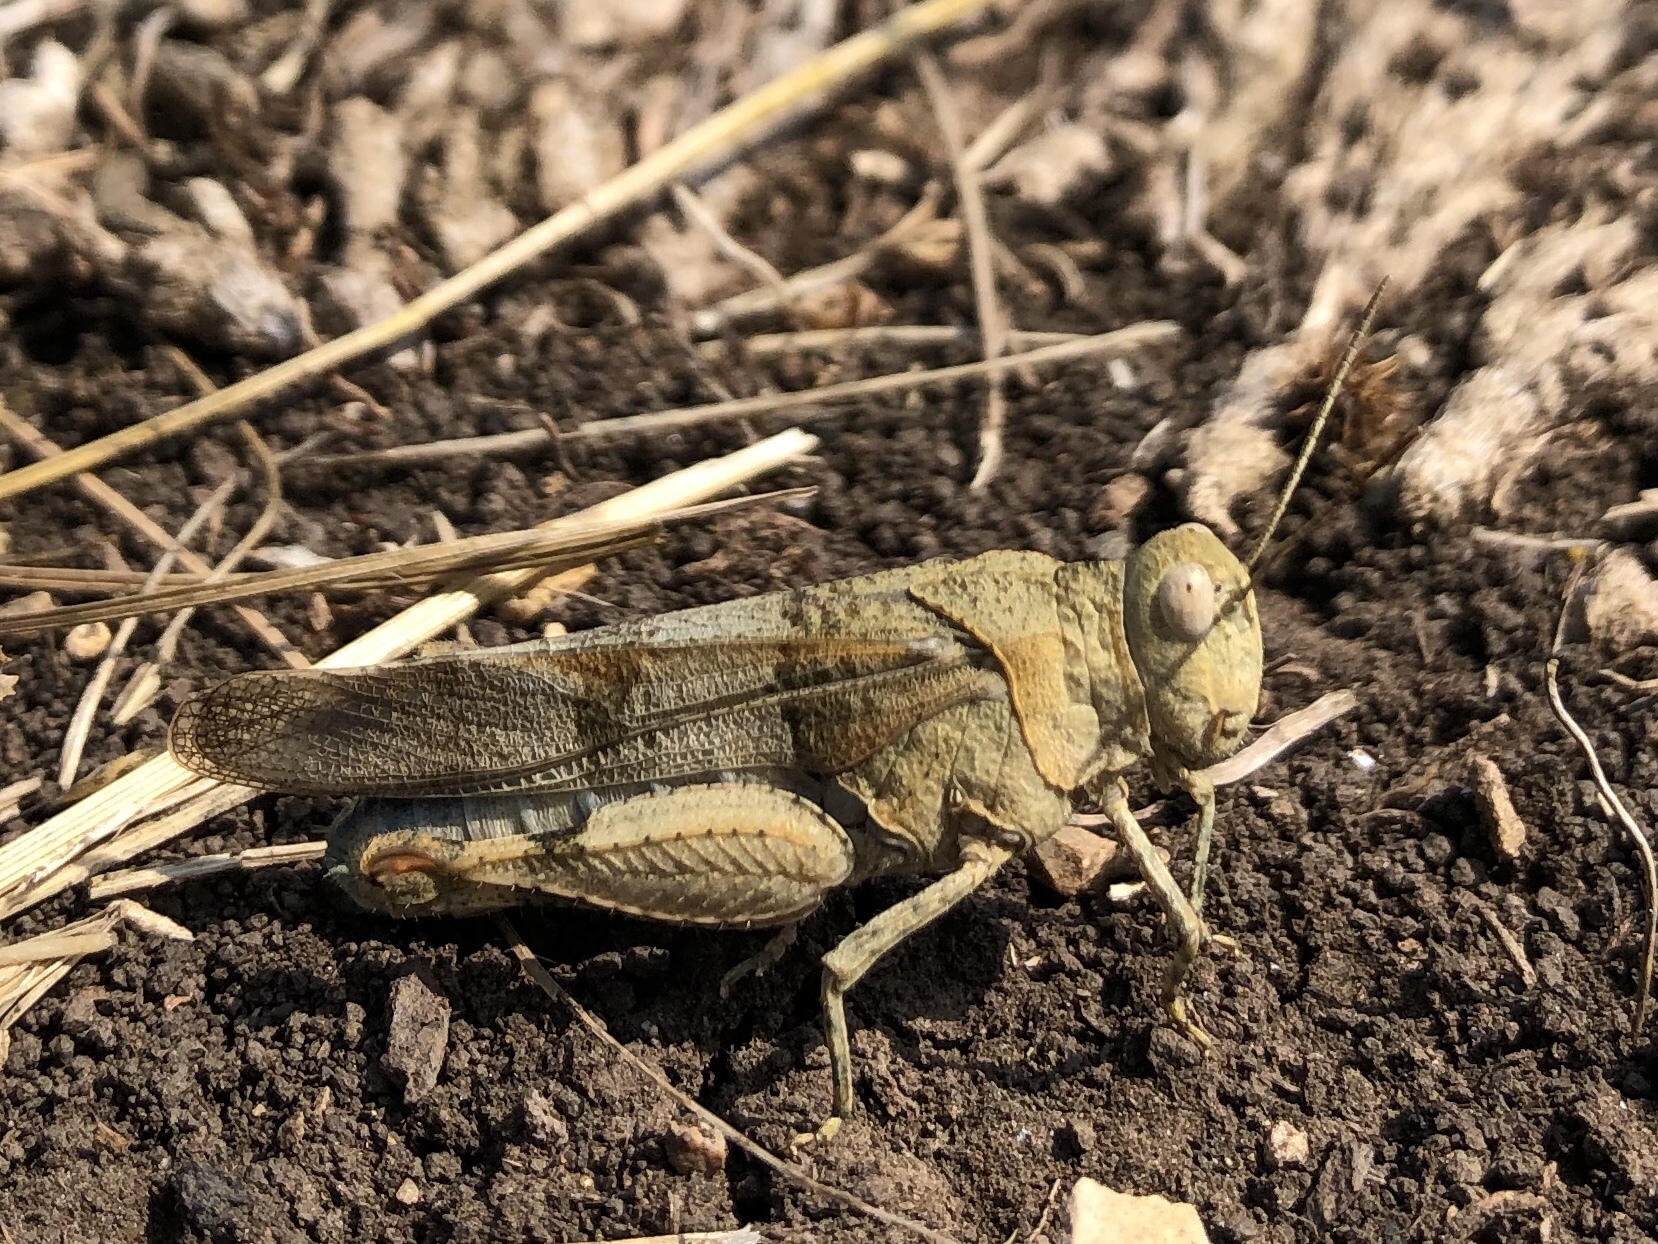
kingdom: Animalia
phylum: Arthropoda
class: Insecta
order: Orthoptera
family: Acrididae
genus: Oedipoda
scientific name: Oedipoda caerulescens
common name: Blue-winged grasshopper
